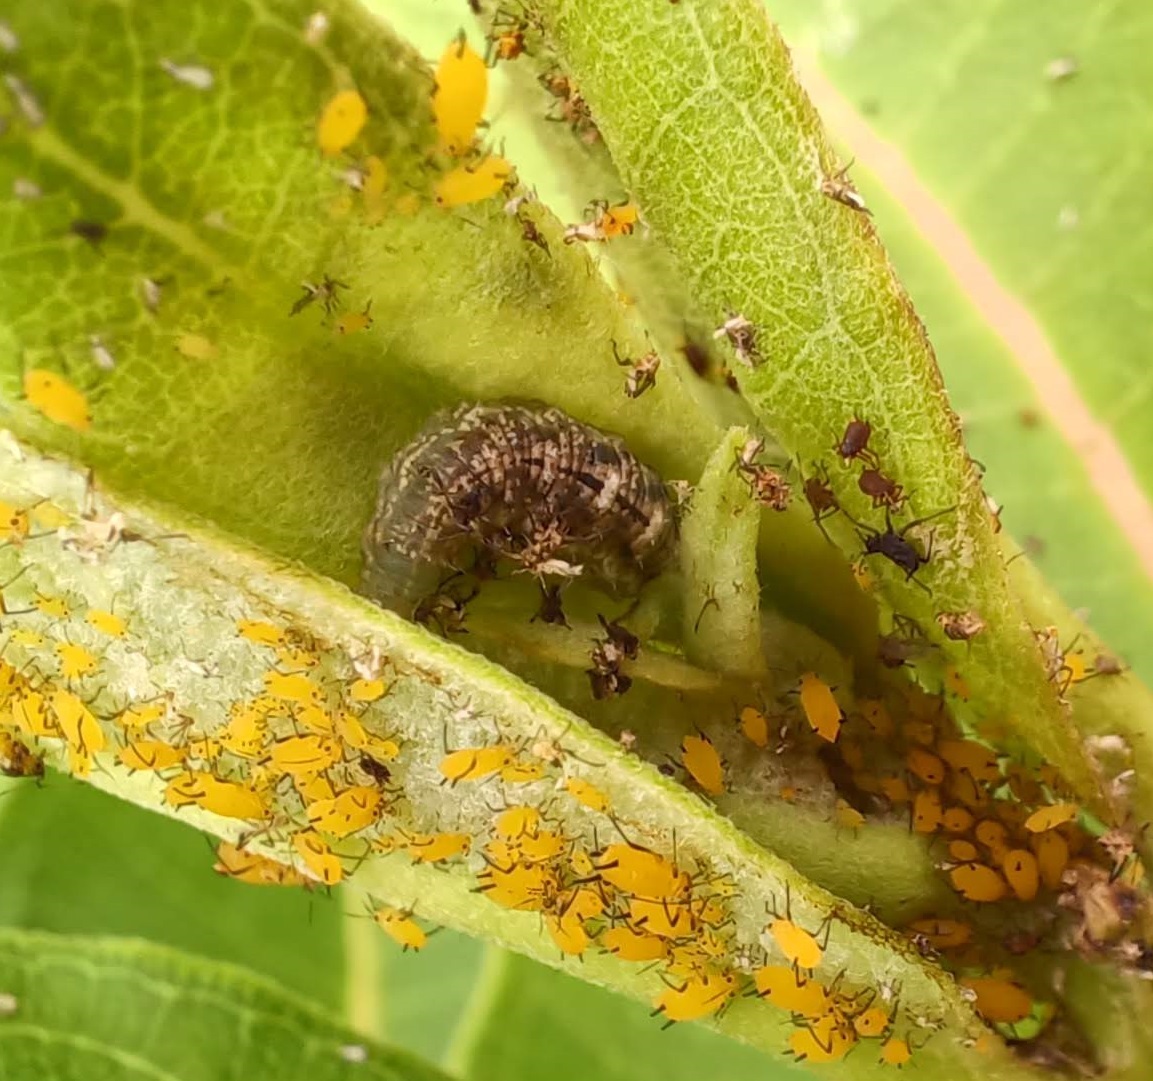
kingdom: Animalia
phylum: Arthropoda
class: Insecta
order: Diptera
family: Syrphidae
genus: Eupeodes
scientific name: Eupeodes americanus
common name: Long-tailed aphideater
